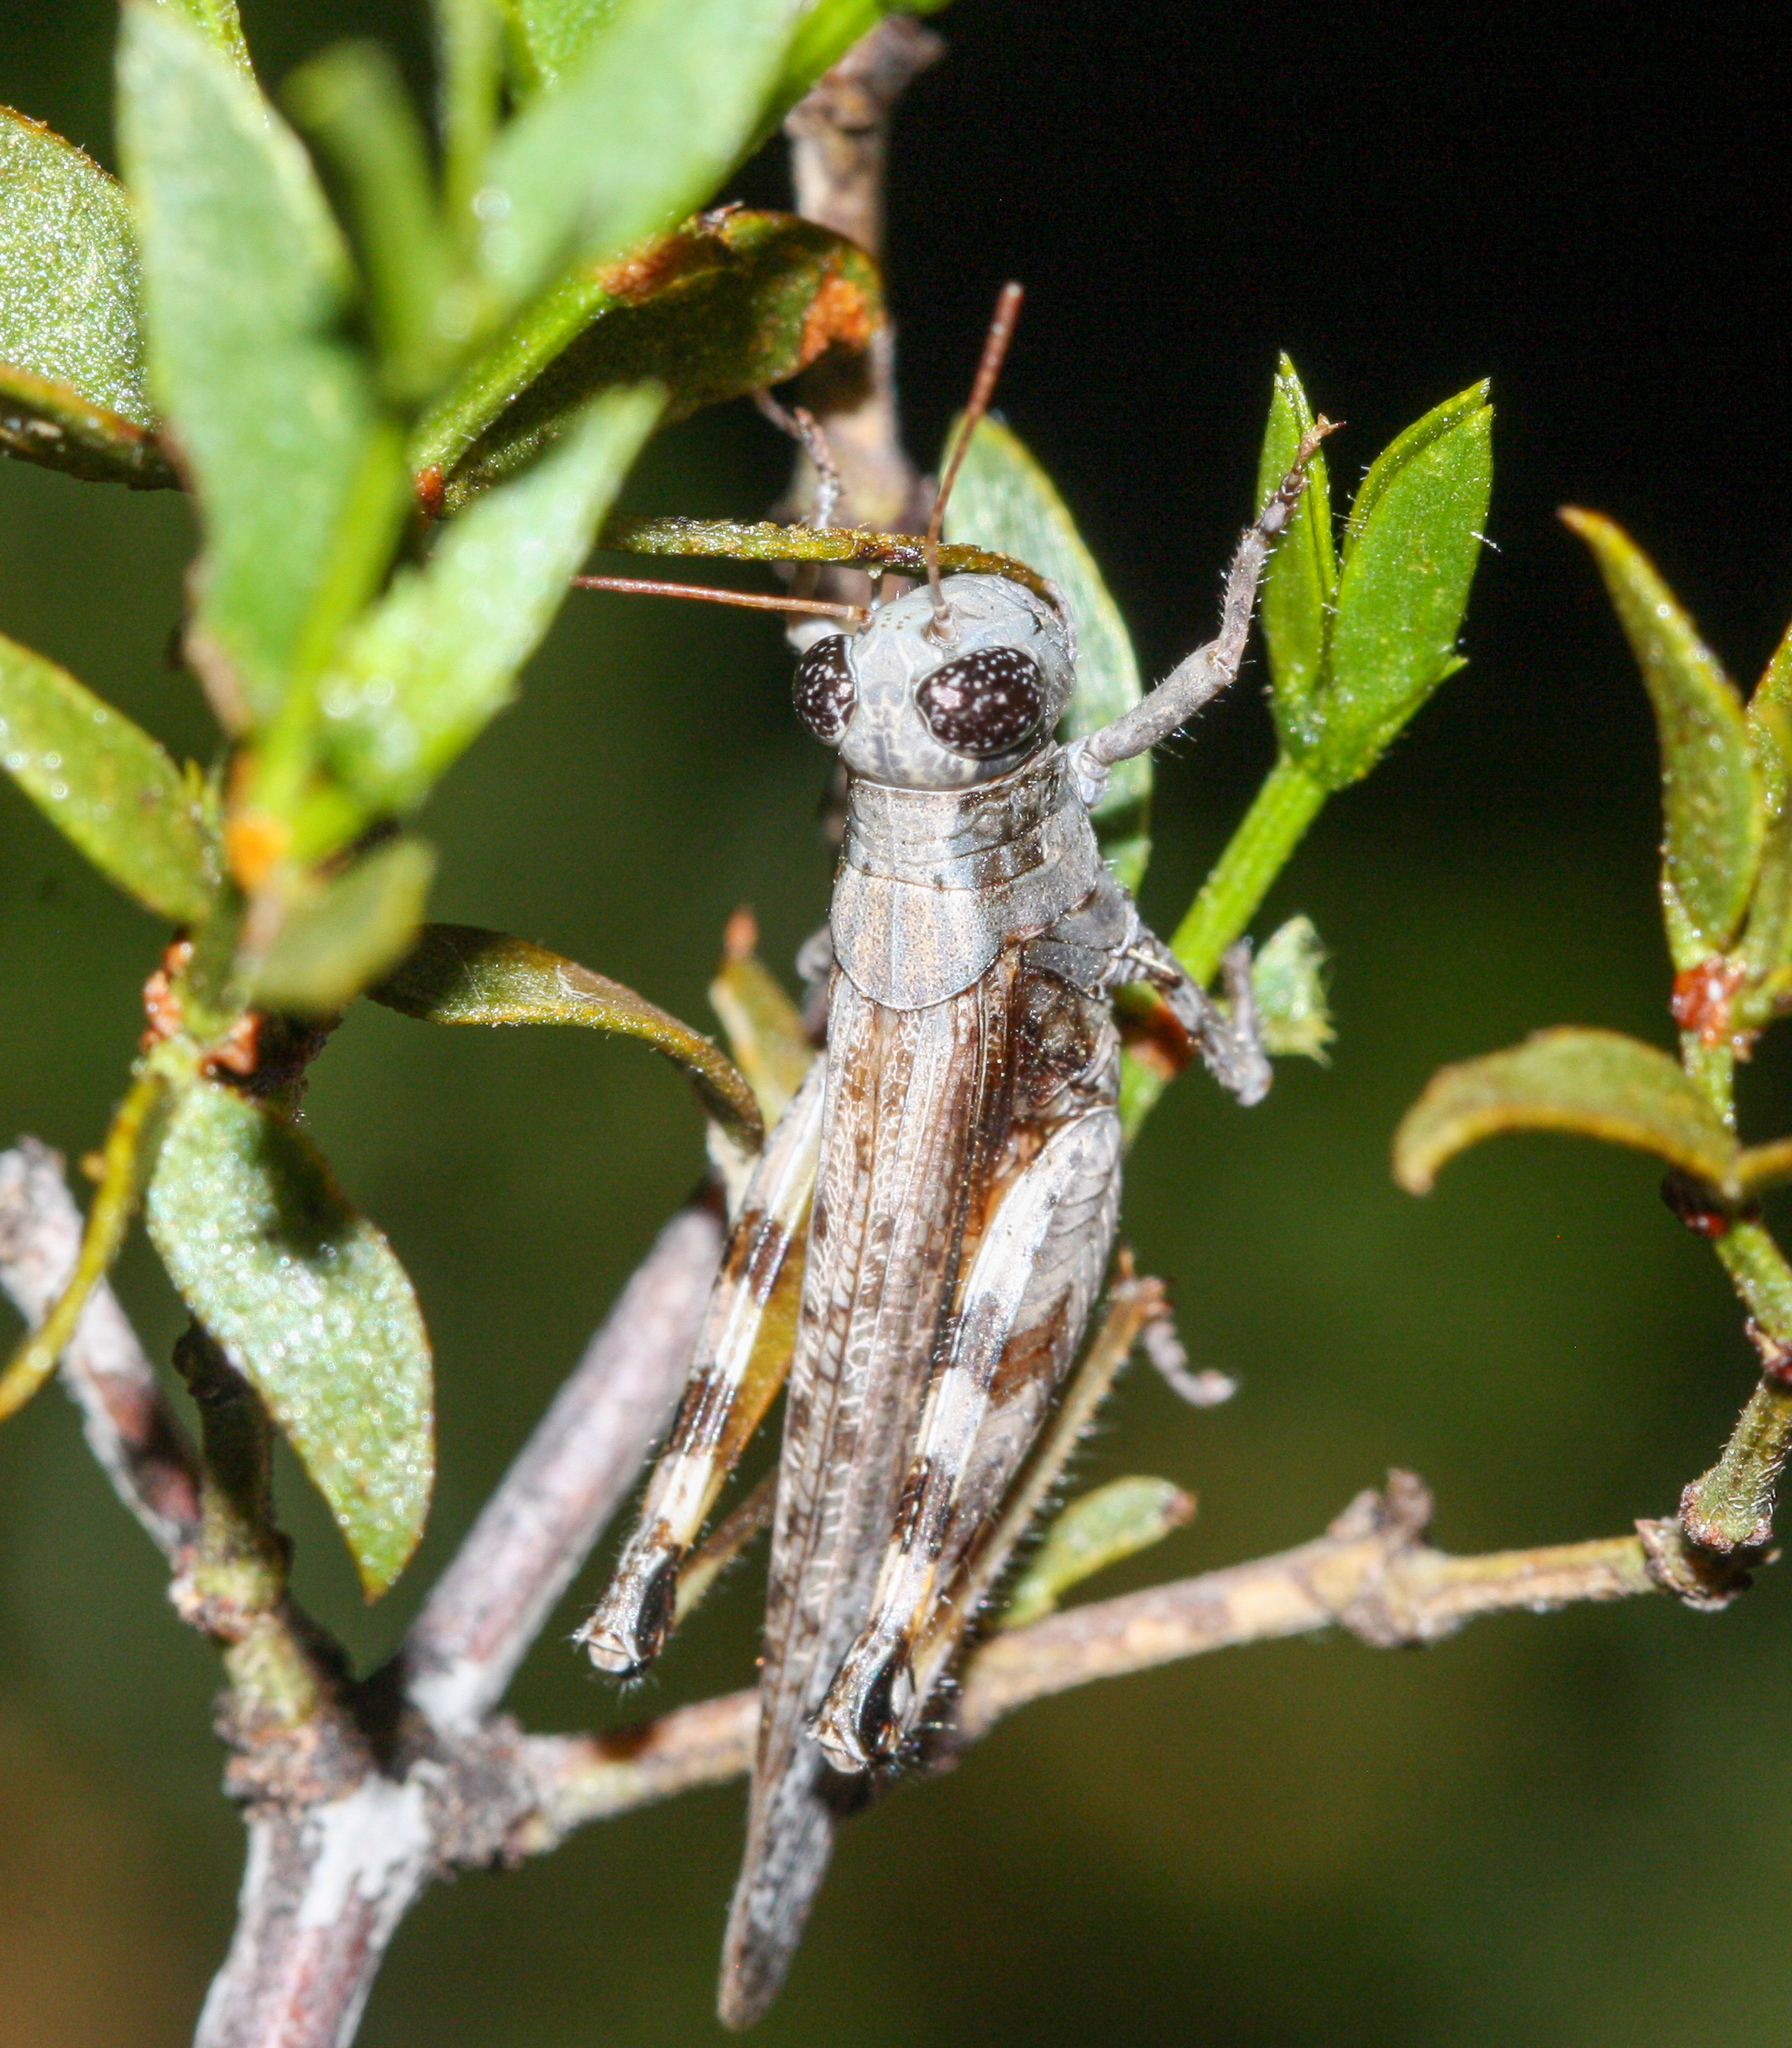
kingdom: Animalia
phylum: Arthropoda
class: Insecta
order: Orthoptera
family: Acrididae
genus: Ligurotettix
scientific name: Ligurotettix coquilletti
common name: Desert clicker grasshopper
